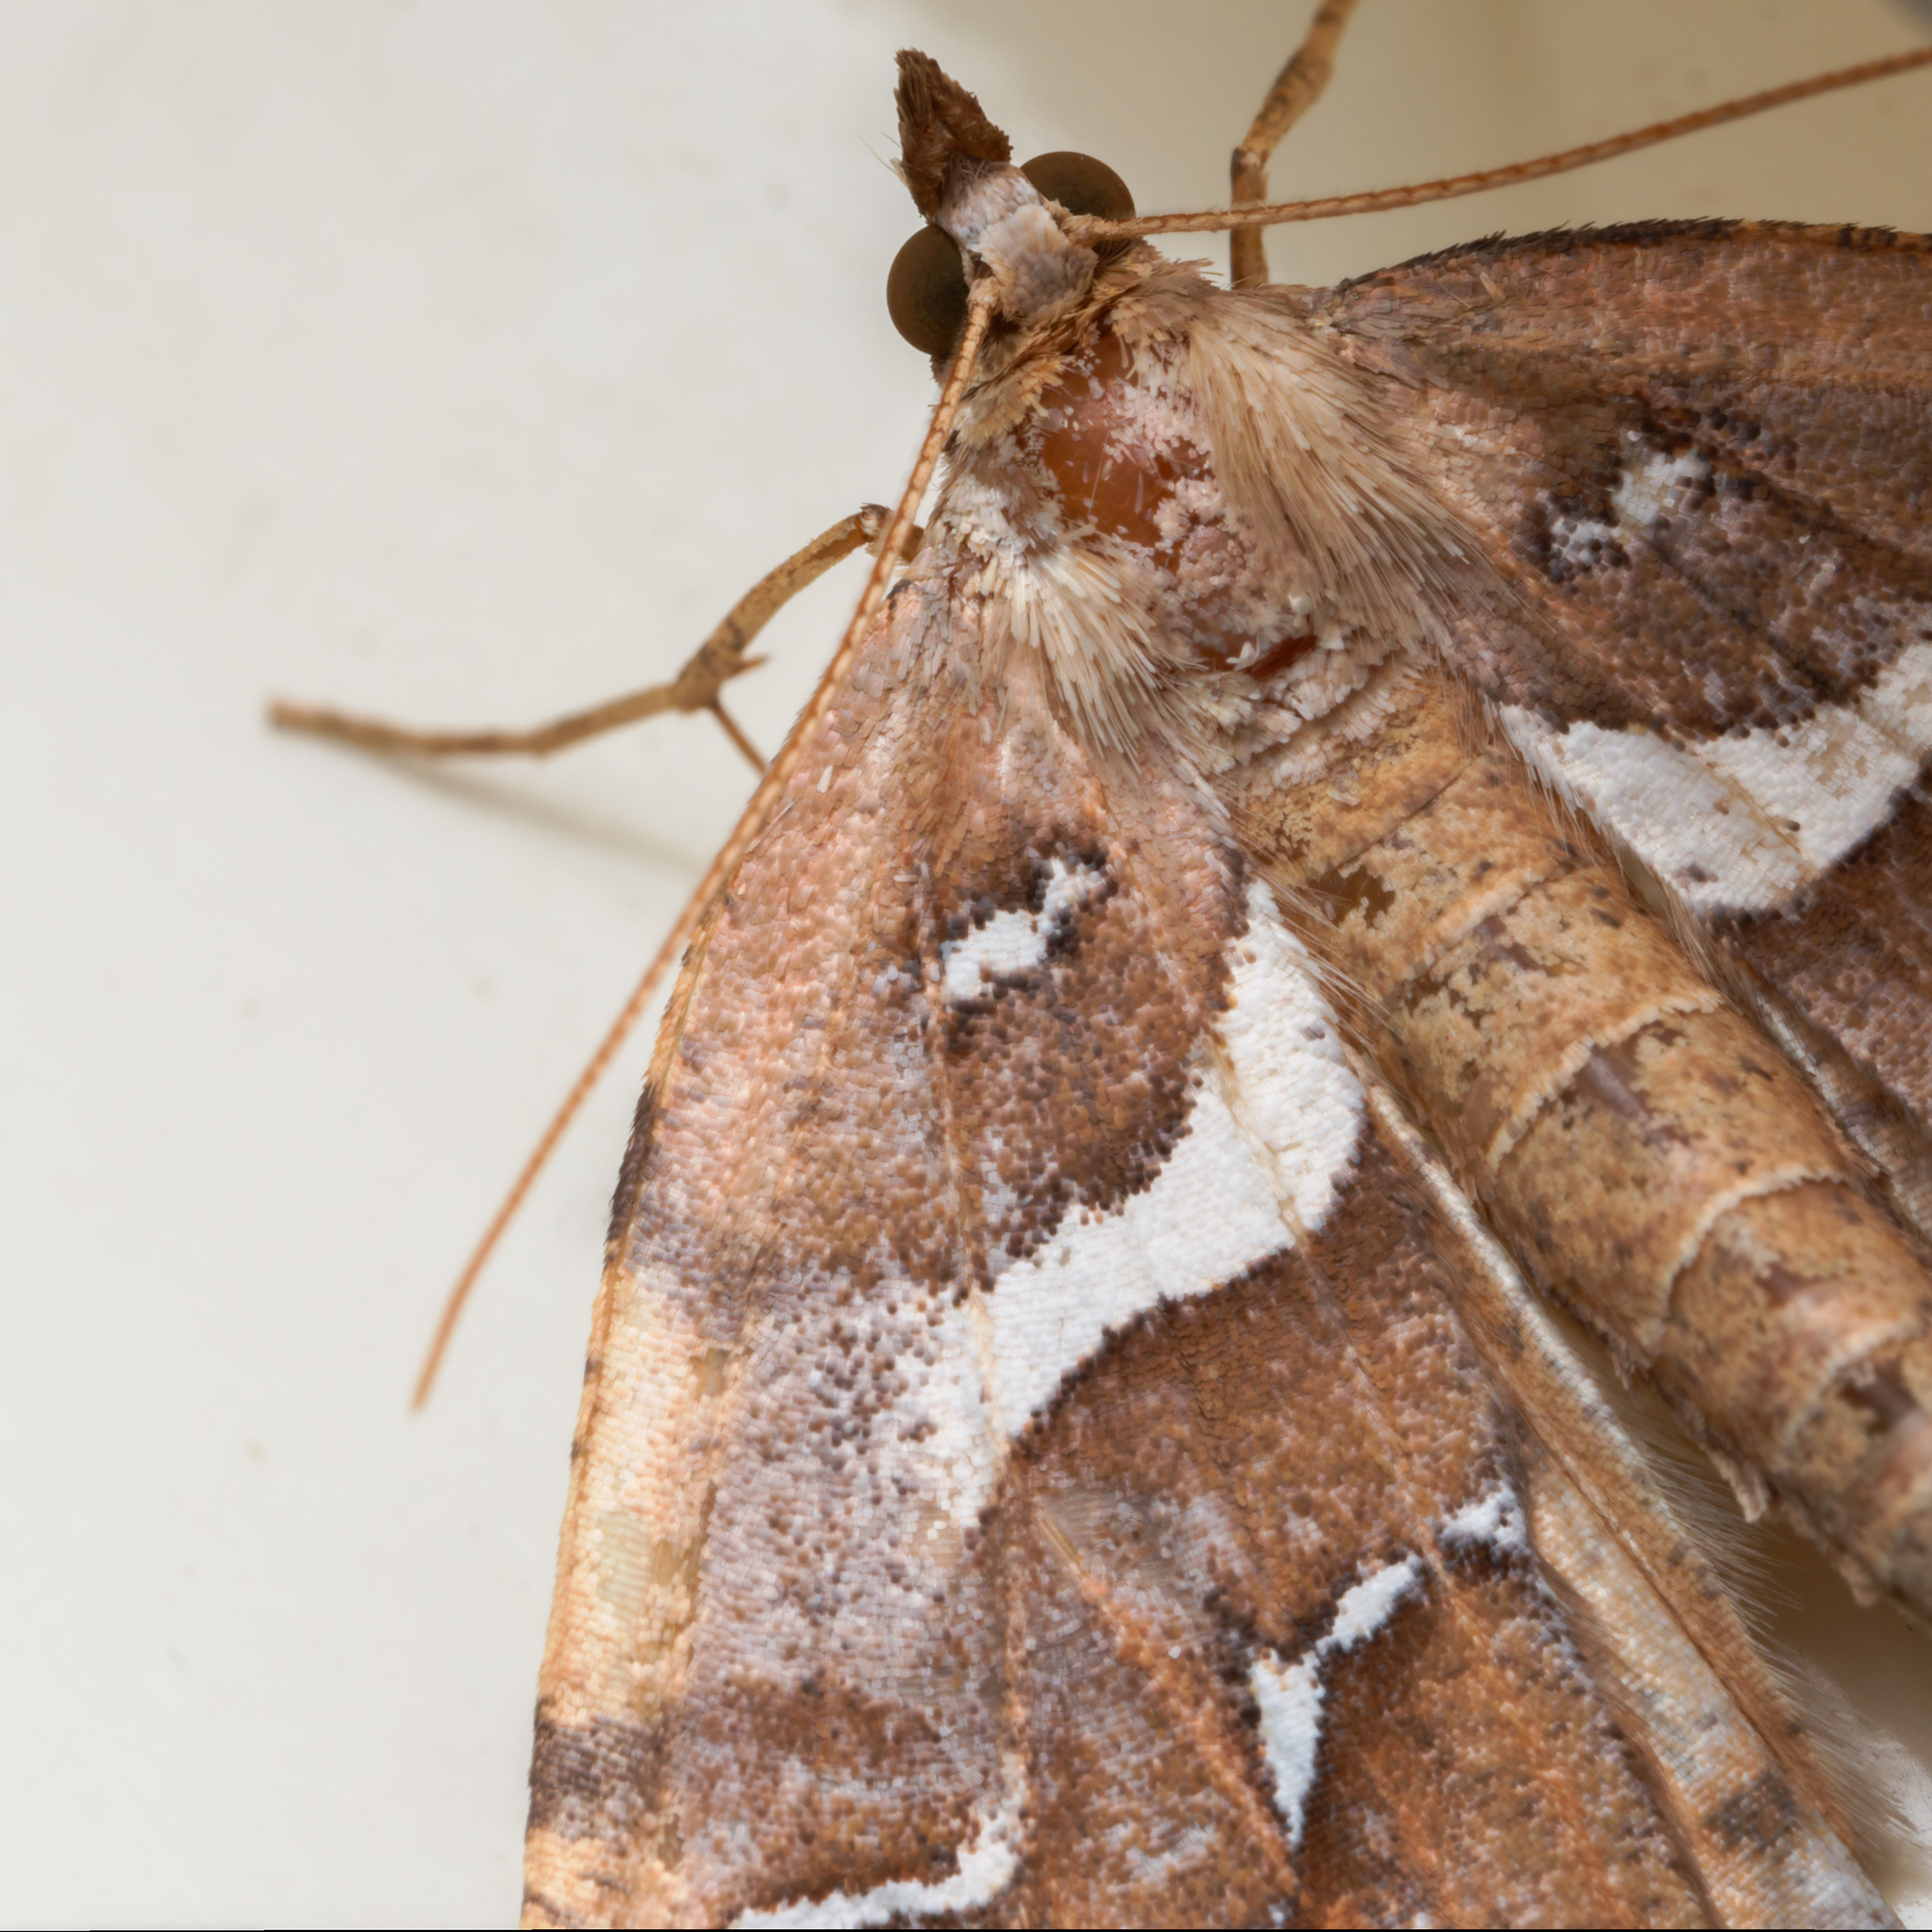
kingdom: Animalia
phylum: Arthropoda
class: Insecta
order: Lepidoptera
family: Geometridae
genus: Chalastra
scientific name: Chalastra aristarcha
